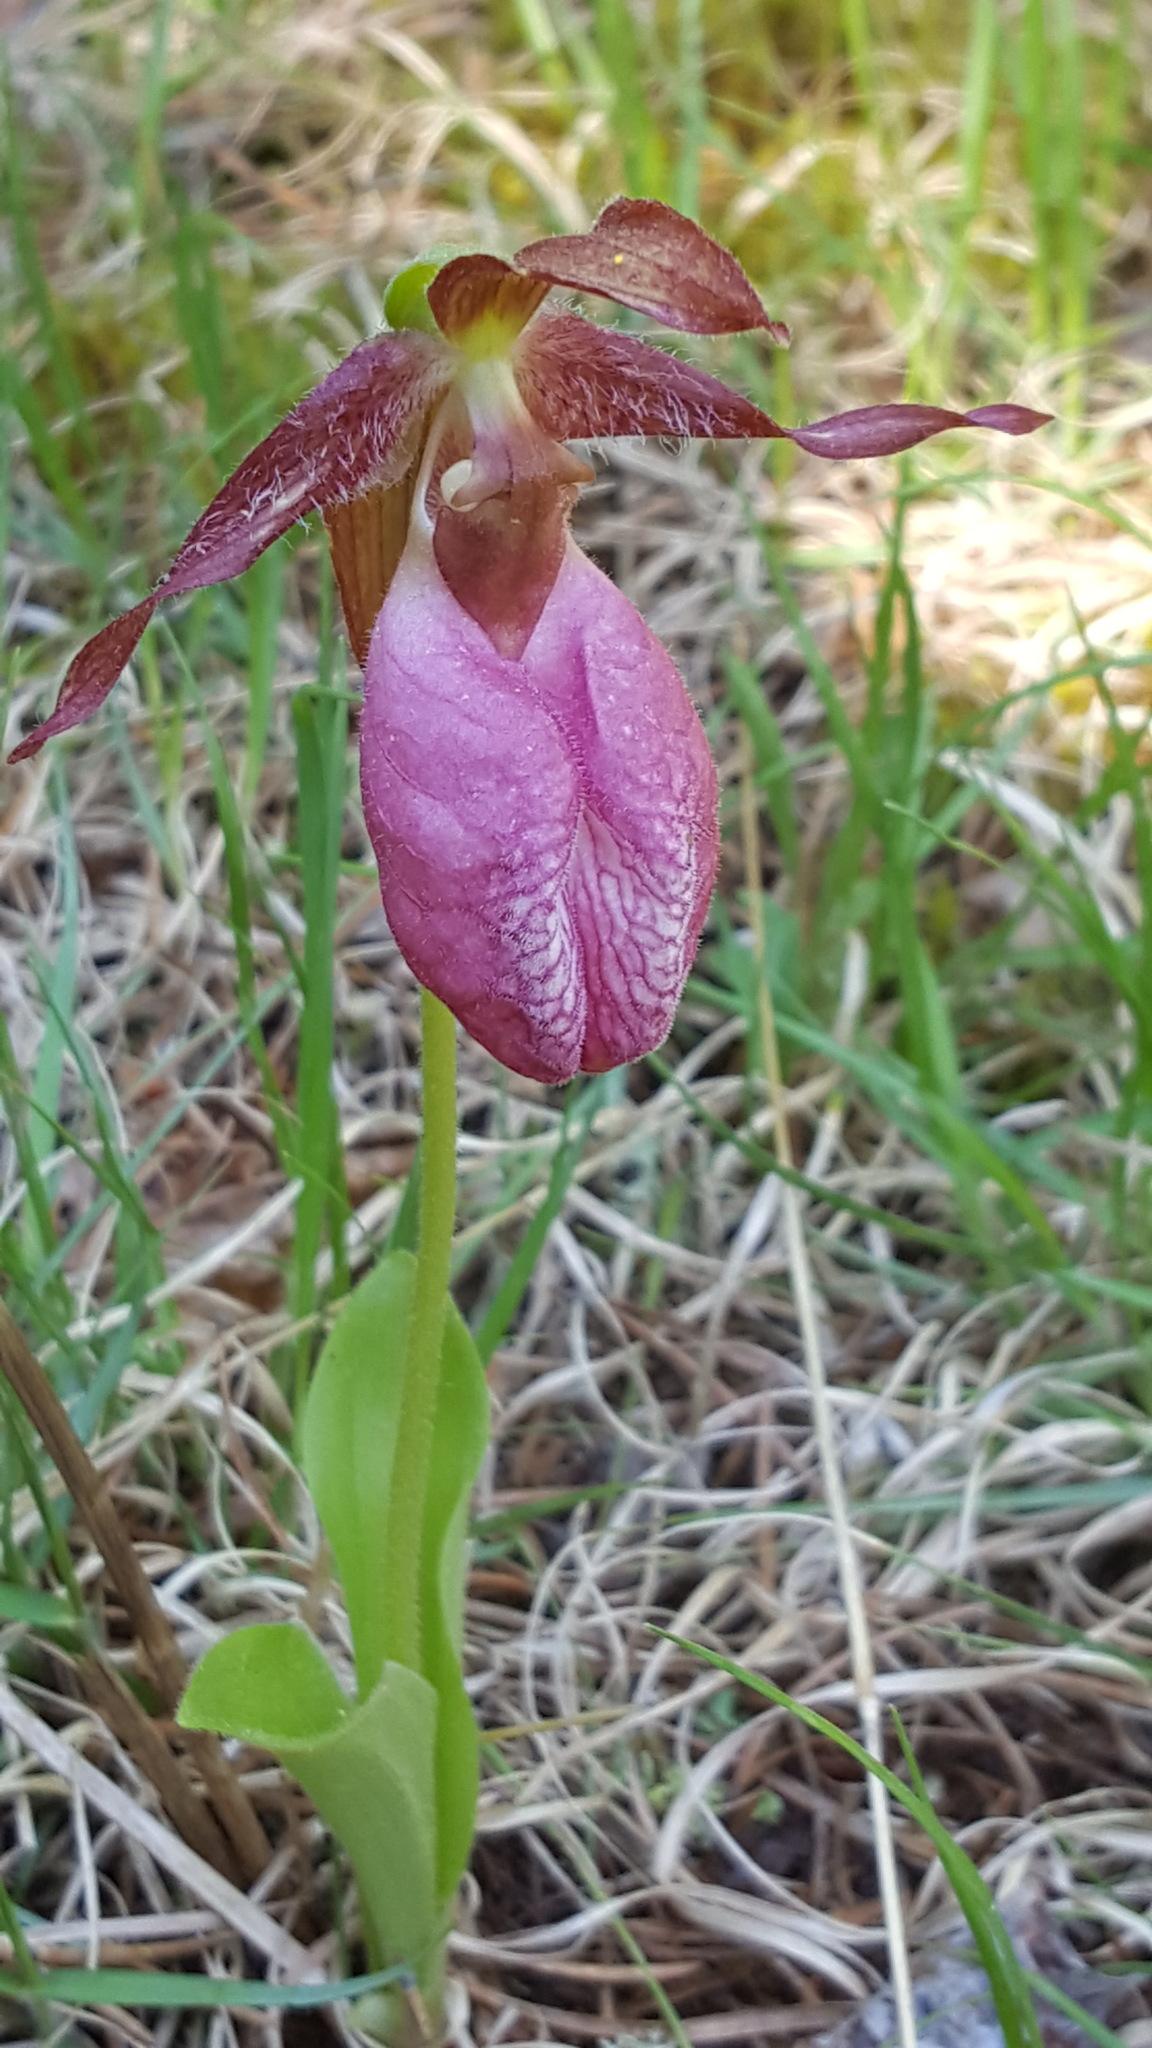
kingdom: Plantae
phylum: Tracheophyta
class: Liliopsida
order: Asparagales
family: Orchidaceae
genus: Cypripedium
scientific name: Cypripedium acaule
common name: Pink lady's-slipper
